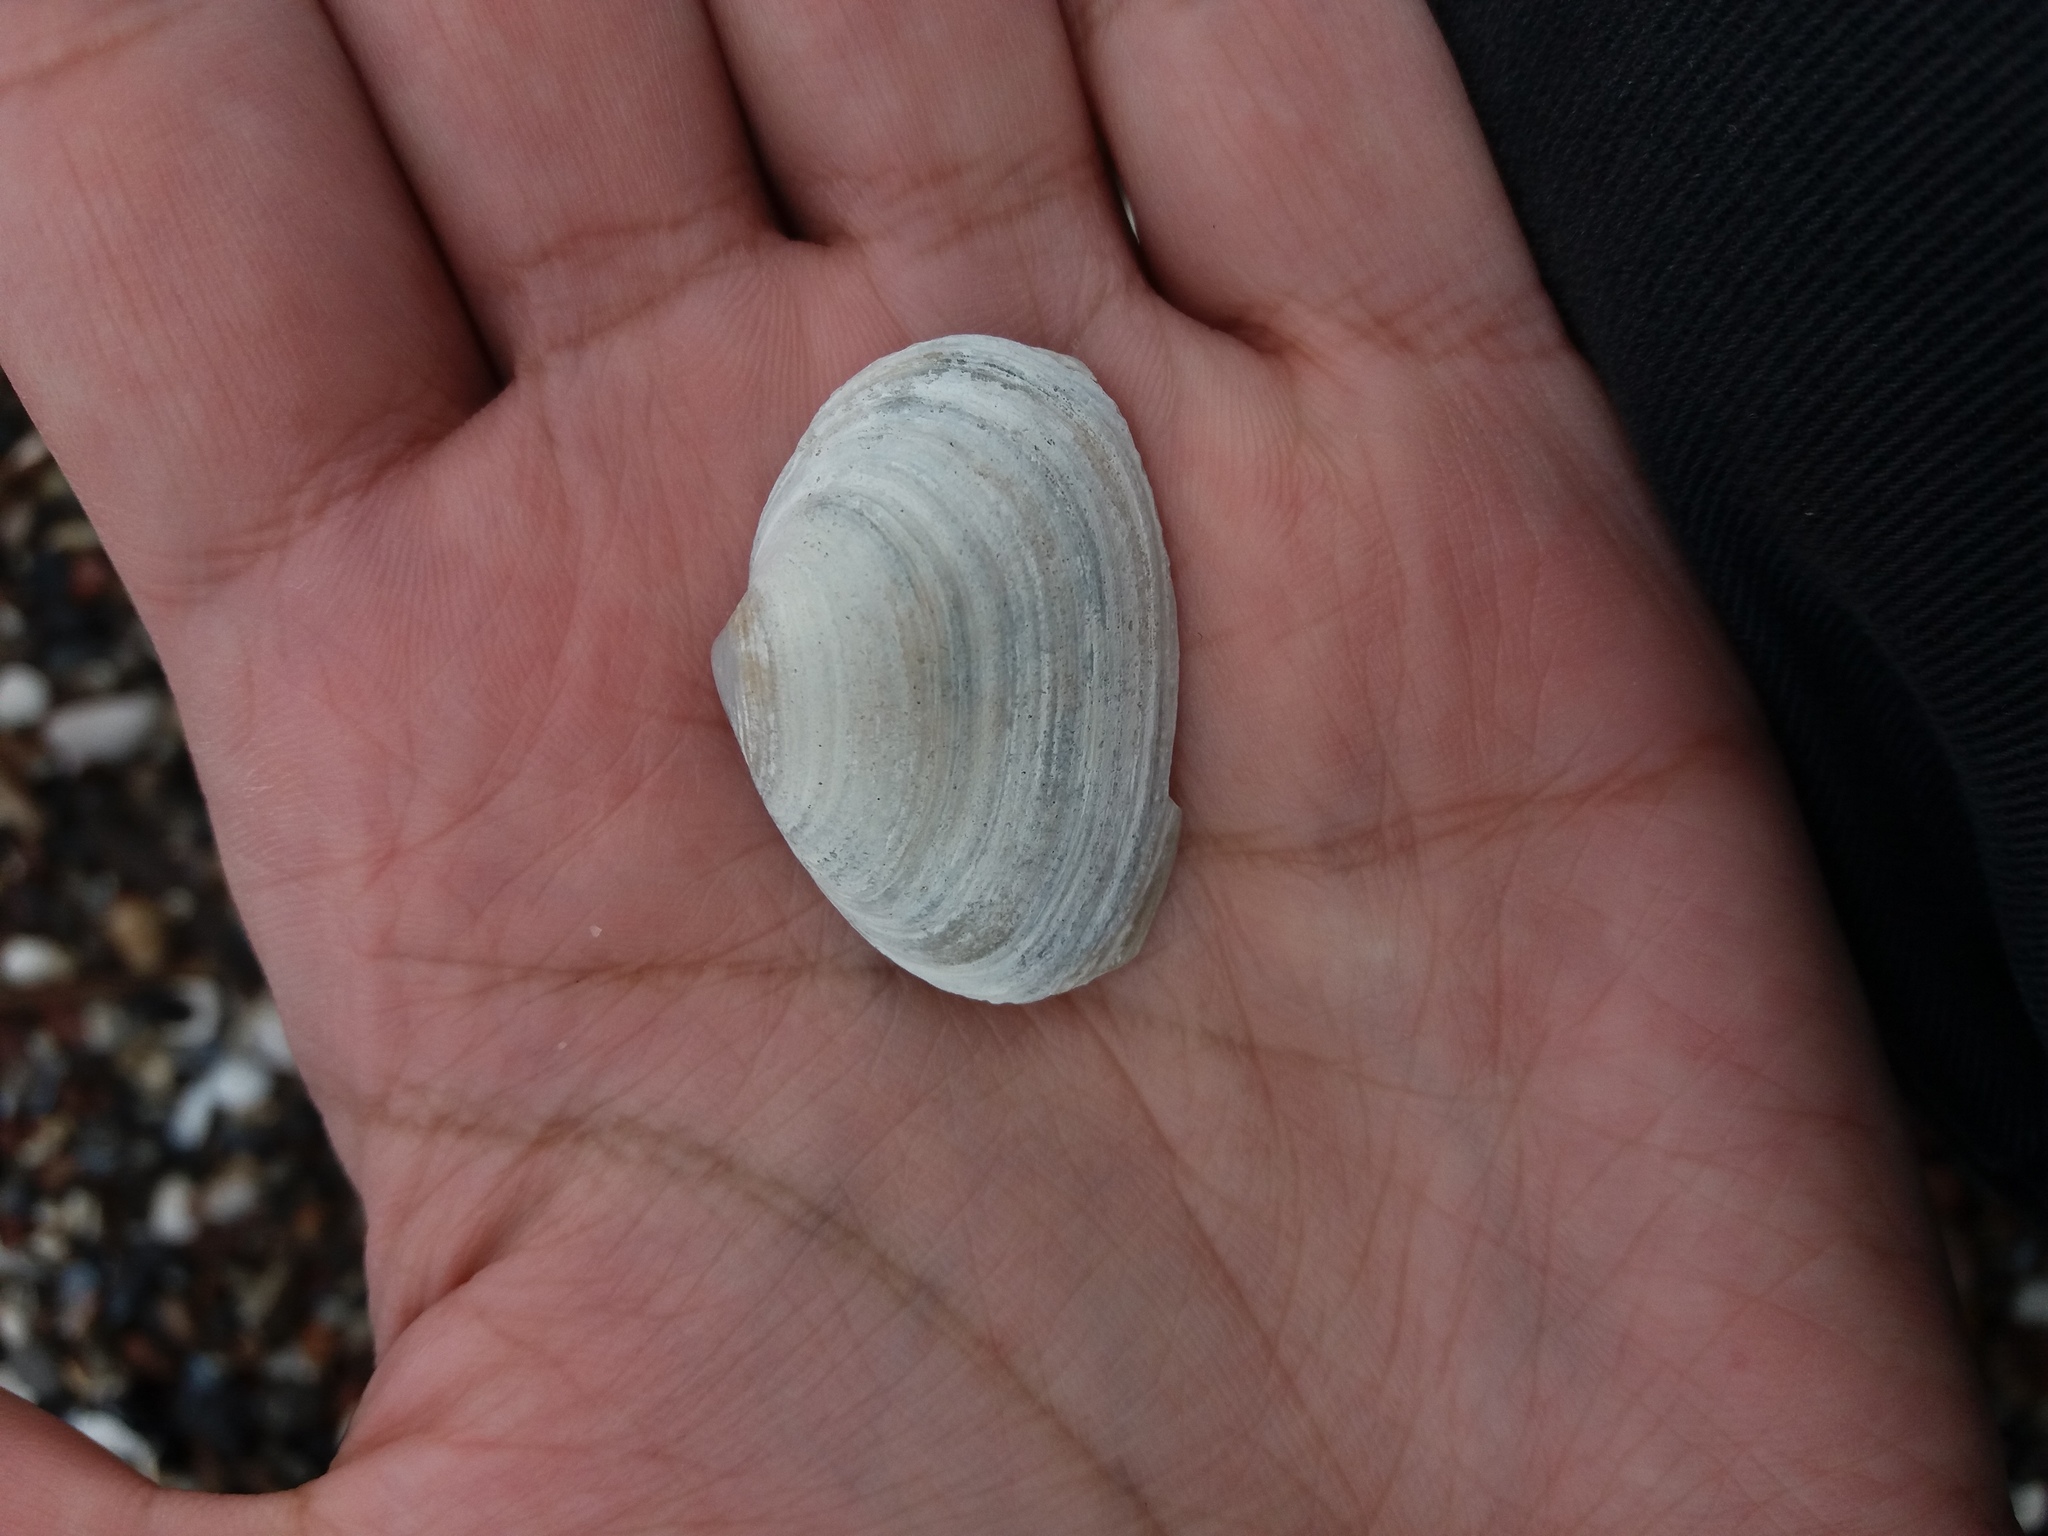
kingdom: Animalia
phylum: Mollusca
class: Bivalvia
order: Myida
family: Myidae
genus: Mya
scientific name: Mya arenaria
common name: Soft-shelled clam
